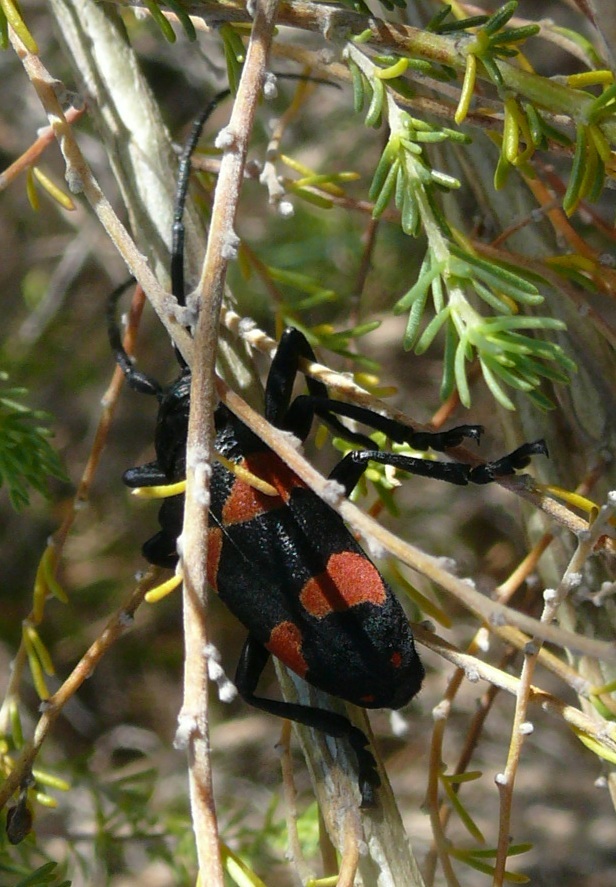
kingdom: Animalia
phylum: Arthropoda
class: Insecta
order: Coleoptera
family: Cerambycidae
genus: Ceroplesis
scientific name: Ceroplesis aethiops
